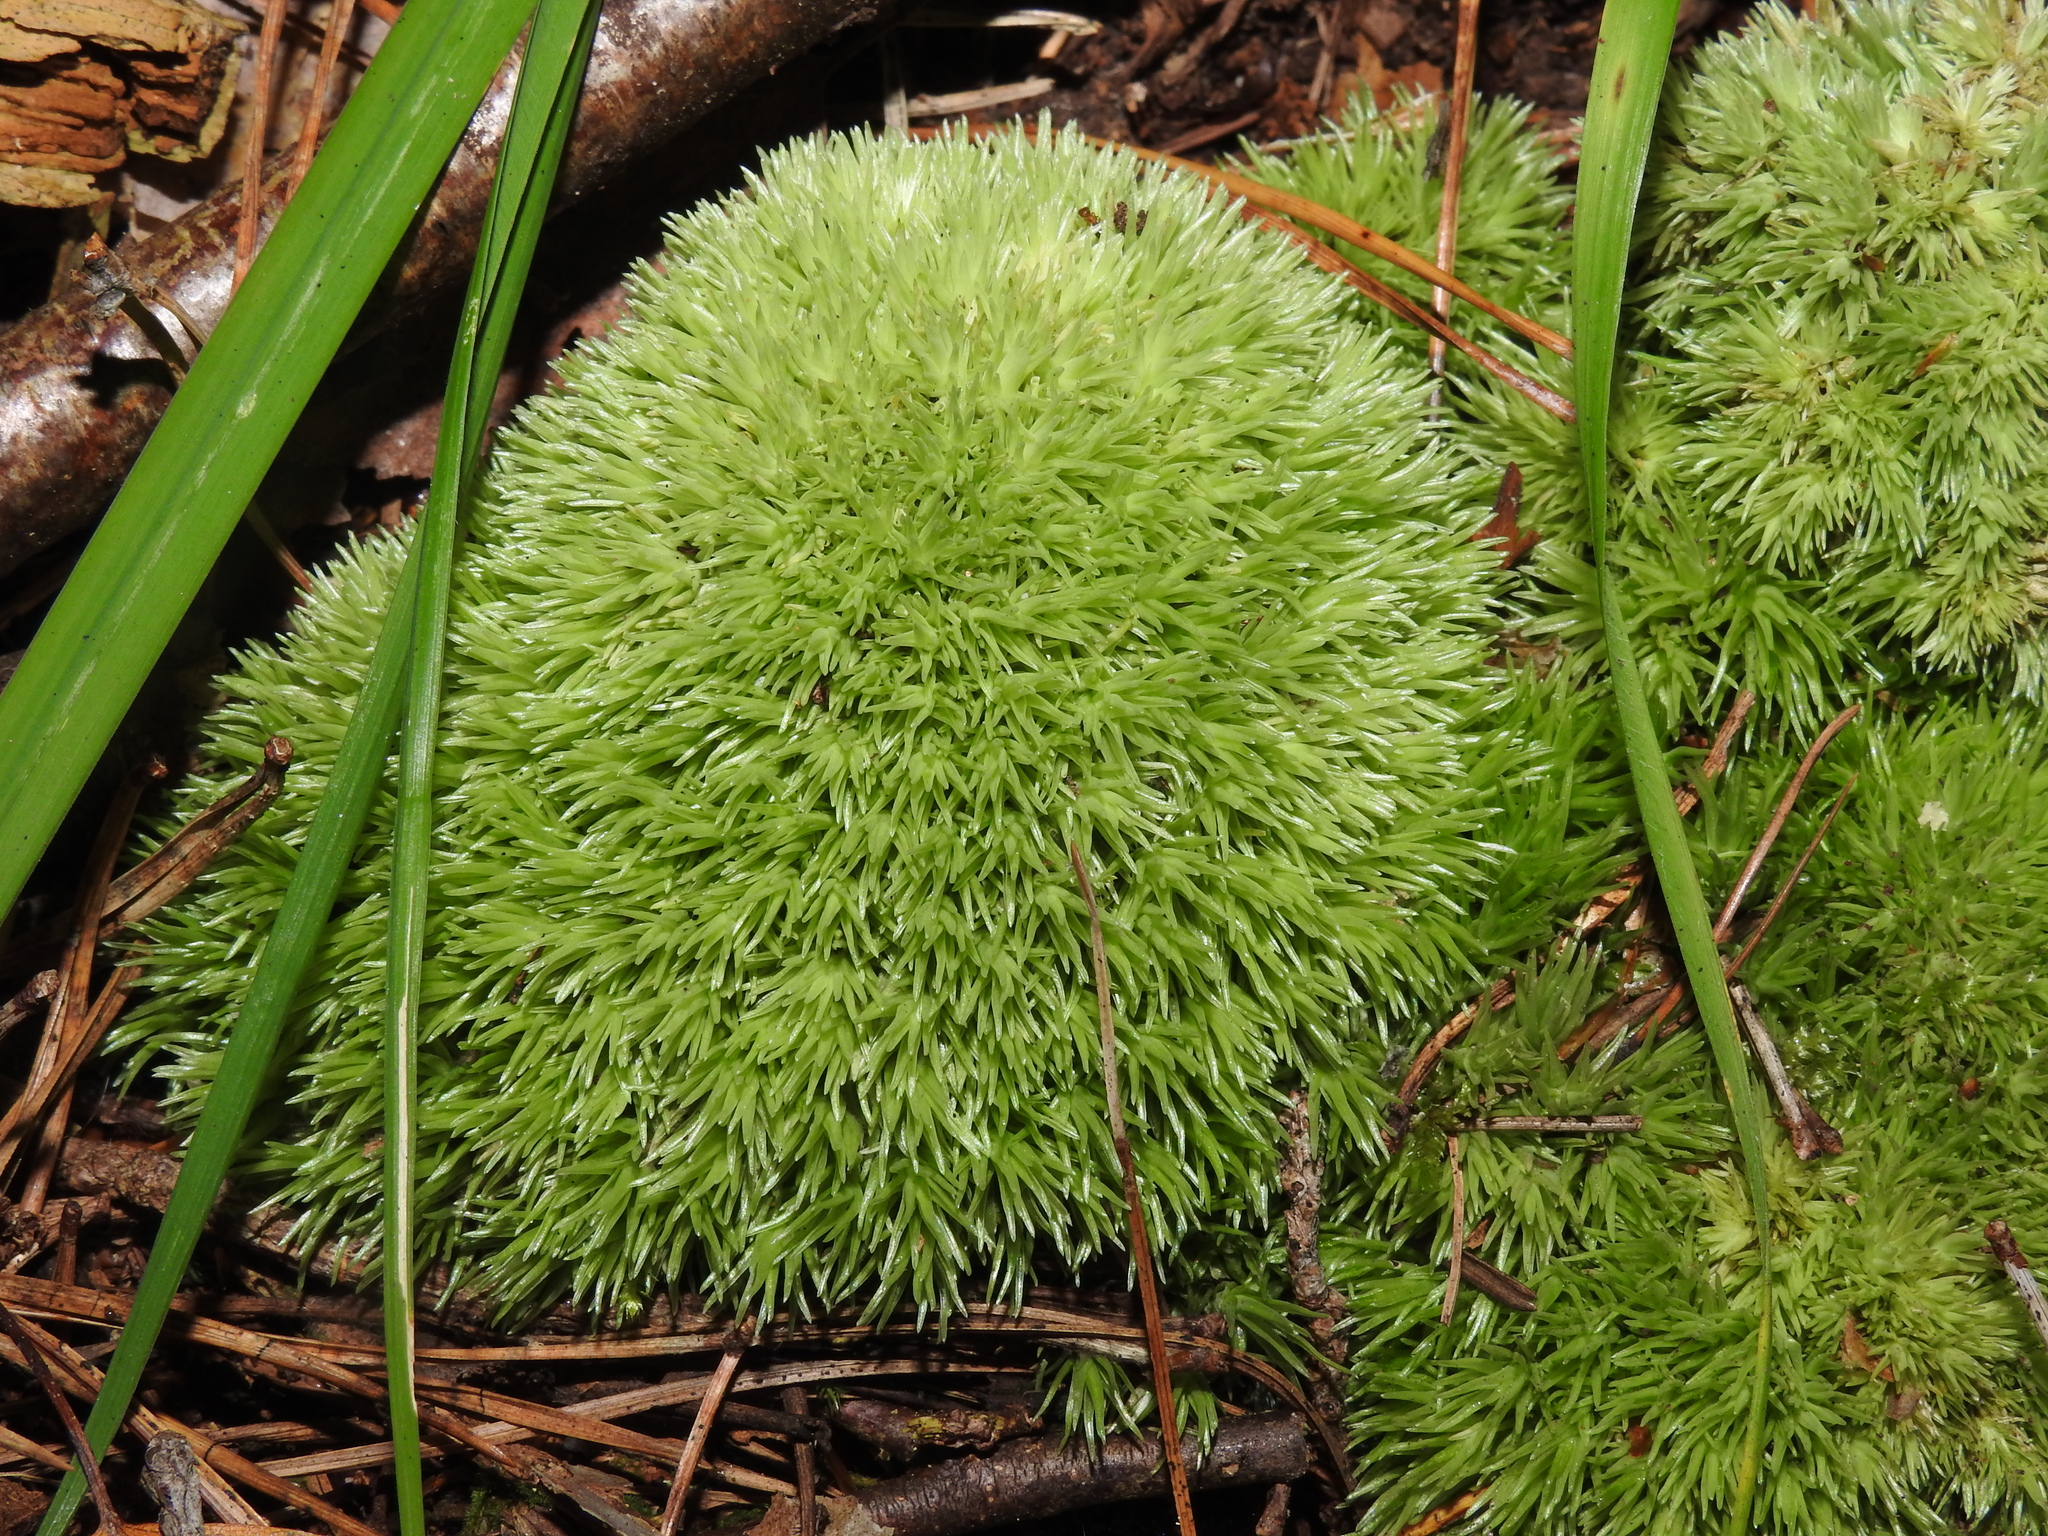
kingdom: Plantae
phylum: Bryophyta
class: Bryopsida
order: Dicranales
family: Leucobryaceae
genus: Leucobryum
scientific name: Leucobryum glaucum
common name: Large white-moss
